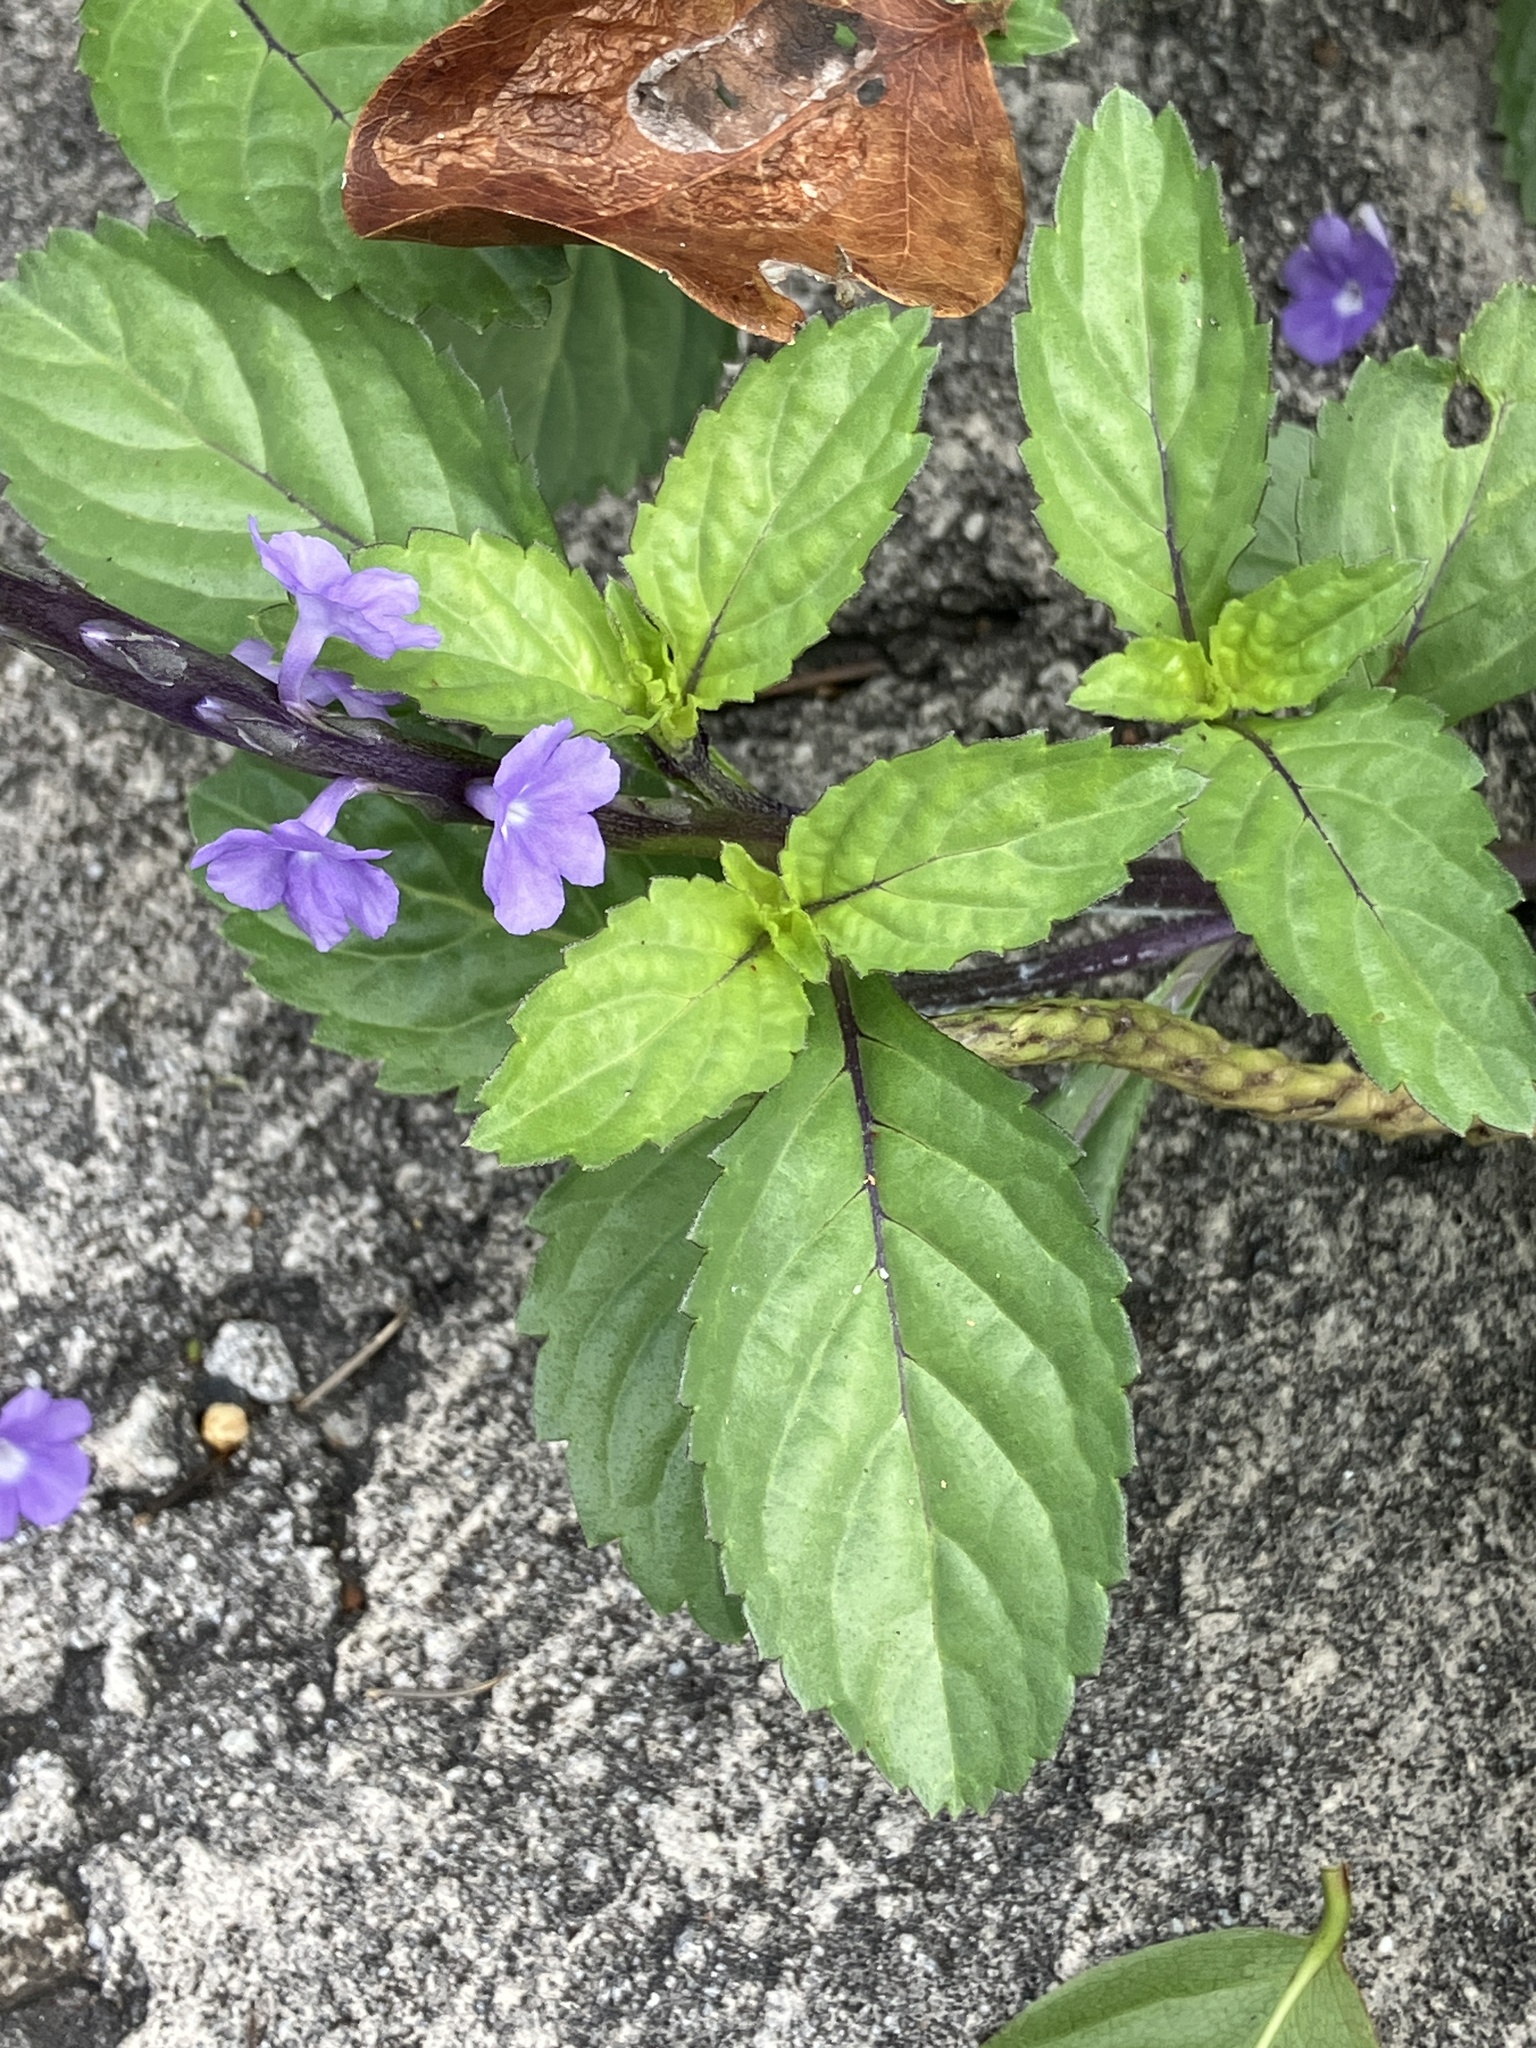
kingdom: Plantae
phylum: Tracheophyta
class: Magnoliopsida
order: Lamiales
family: Verbenaceae
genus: Stachytarpheta
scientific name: Stachytarpheta jamaicensis
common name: Light-blue snakeweed
